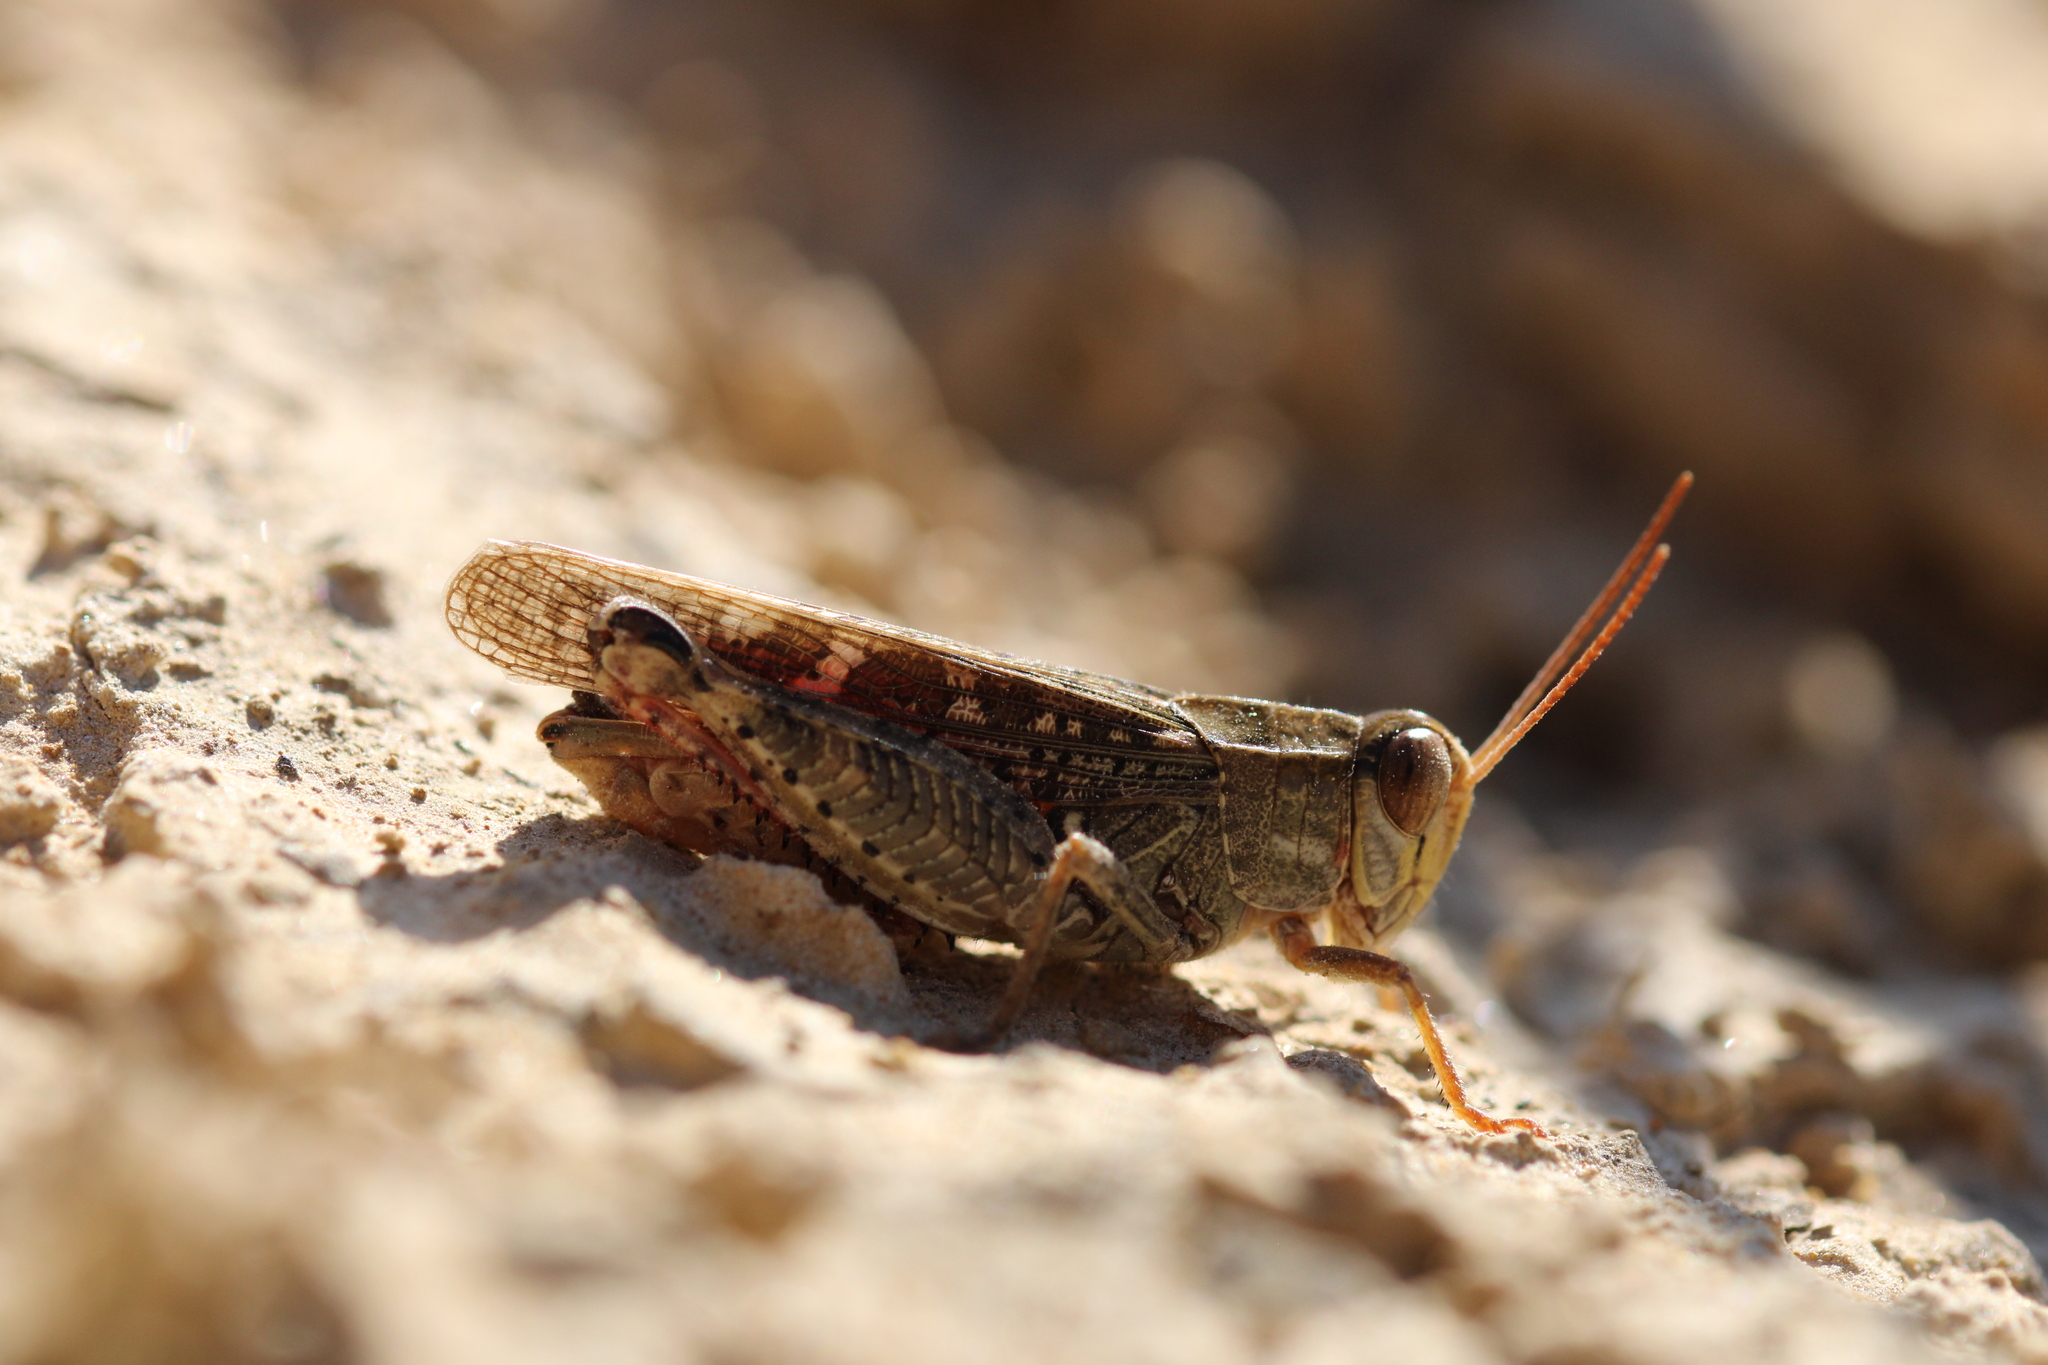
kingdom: Animalia
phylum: Arthropoda
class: Insecta
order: Orthoptera
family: Acrididae
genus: Calliptamus
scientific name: Calliptamus italicus
